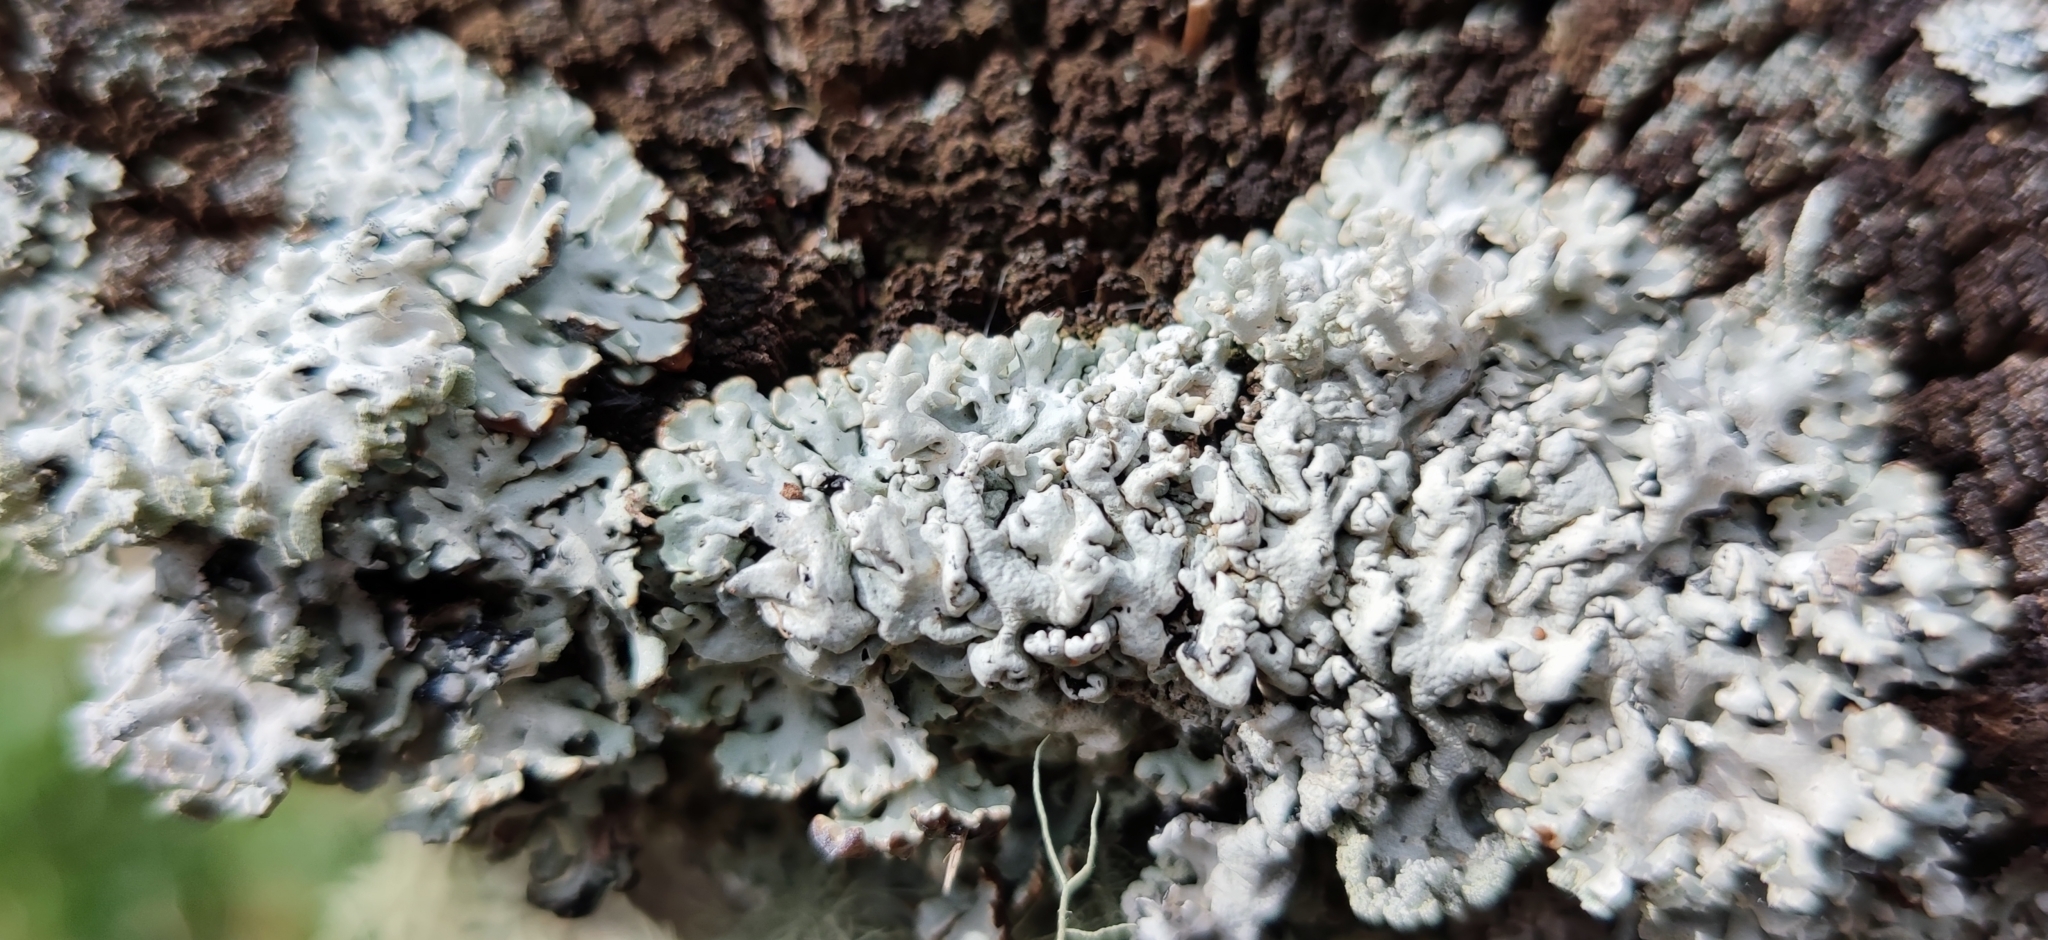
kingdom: Fungi
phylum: Ascomycota
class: Lecanoromycetes
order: Lecanorales
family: Parmeliaceae
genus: Hypogymnia
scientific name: Hypogymnia physodes
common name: Dark crottle
